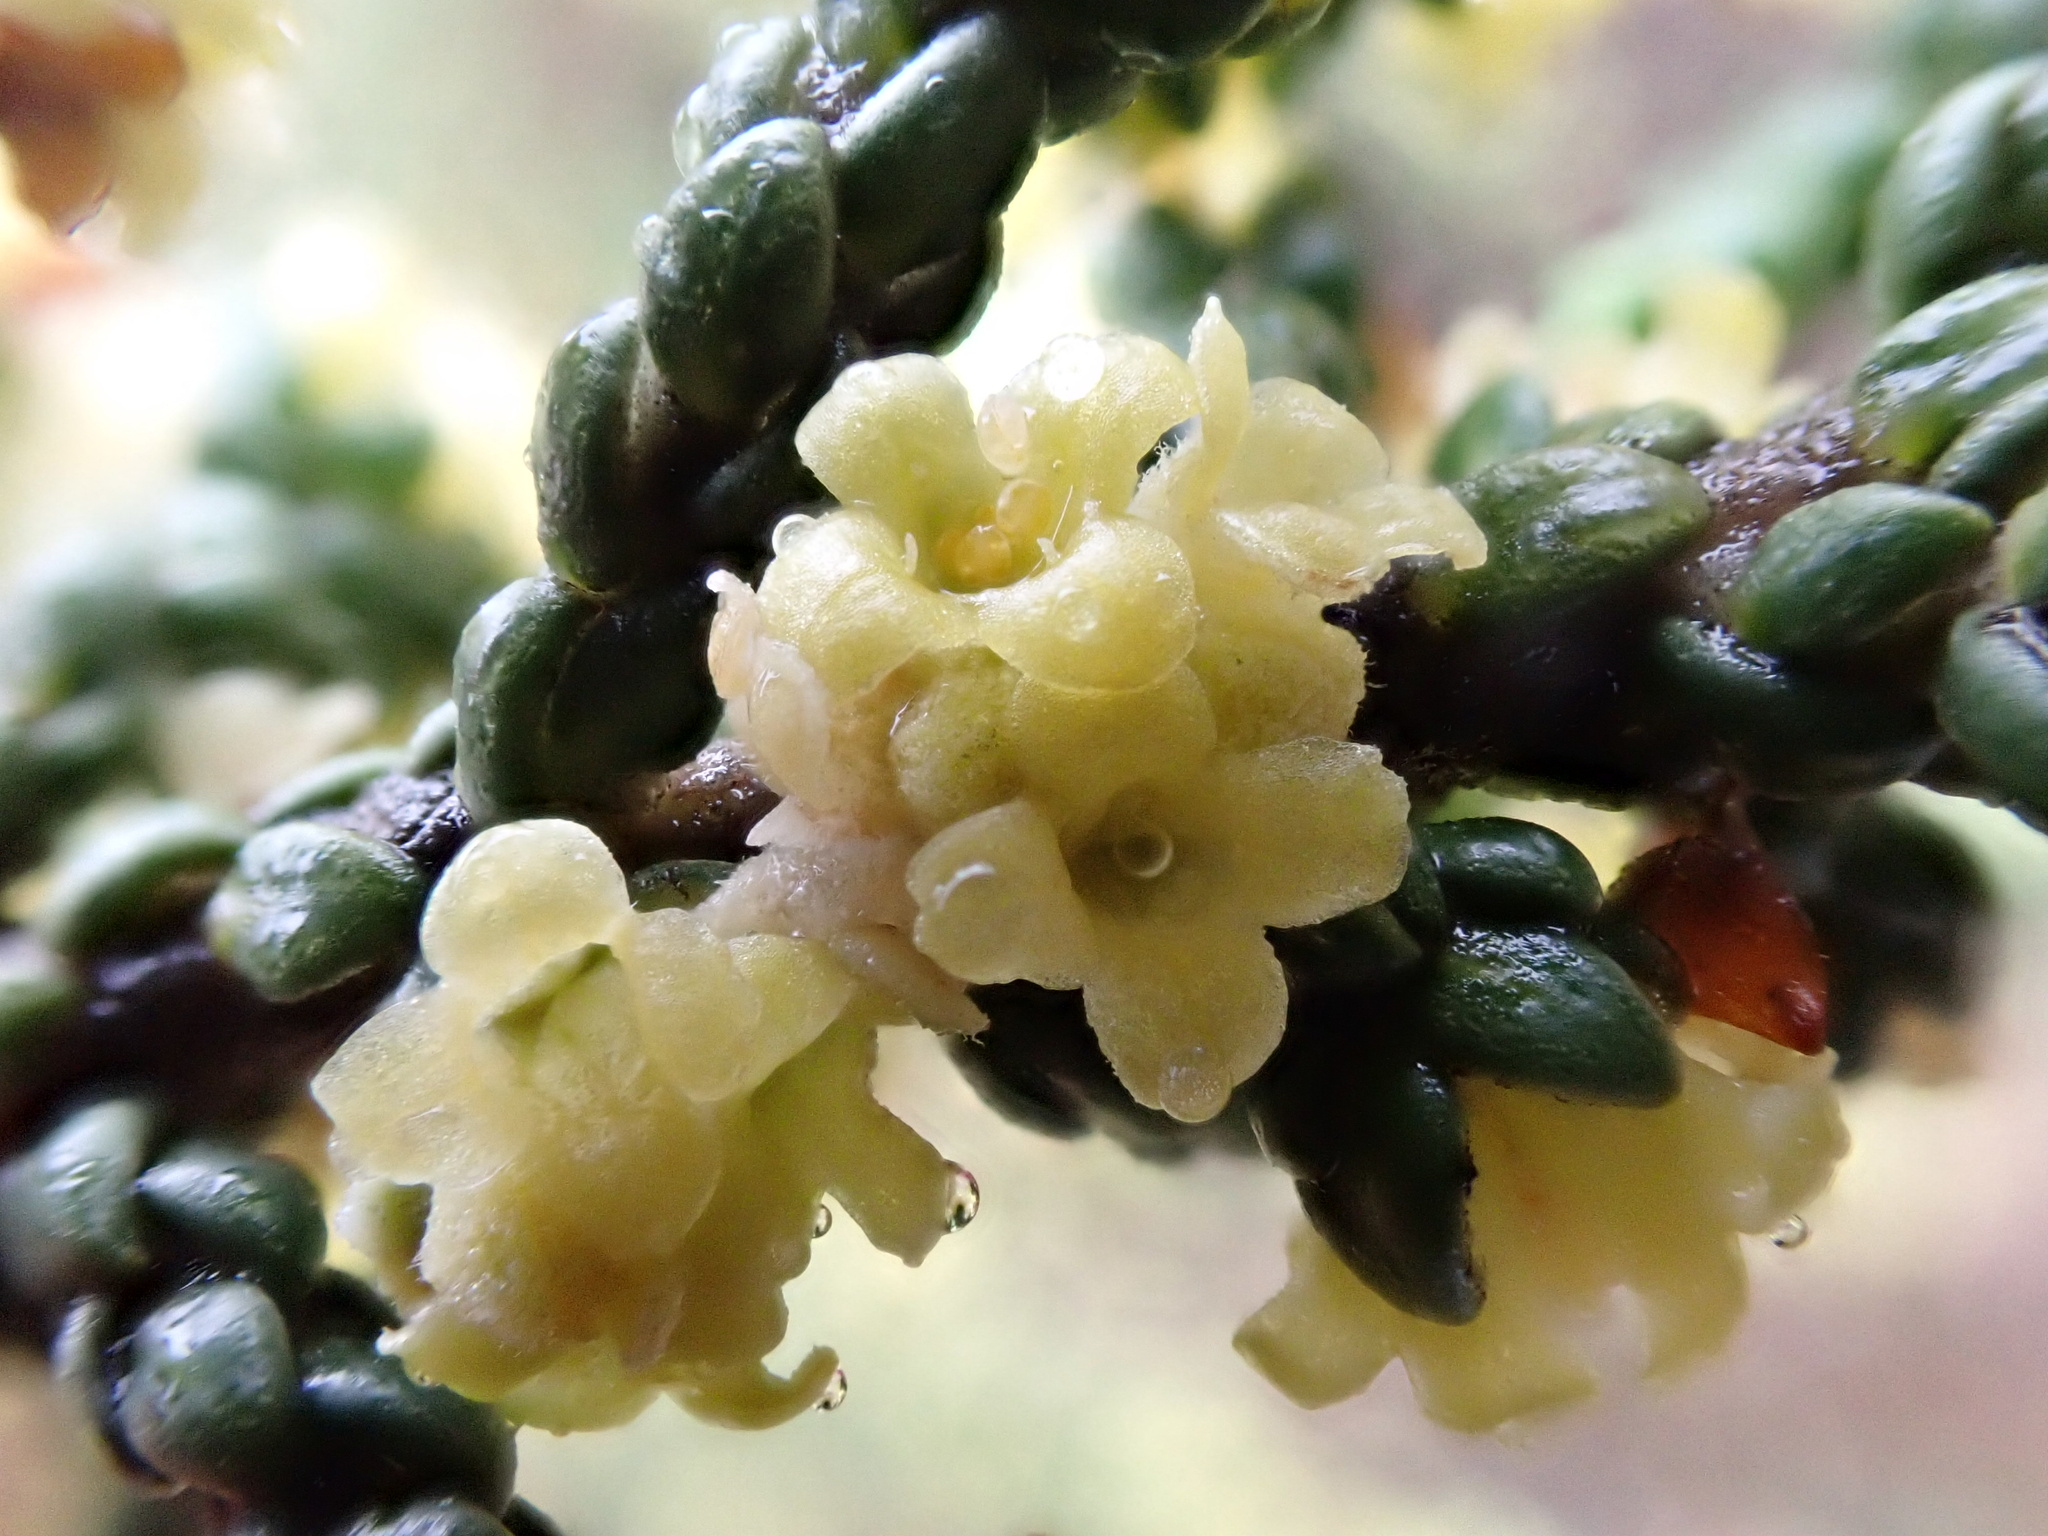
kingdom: Plantae
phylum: Tracheophyta
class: Magnoliopsida
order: Malvales
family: Thymelaeaceae
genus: Thymelaea
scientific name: Thymelaea hirsuta
